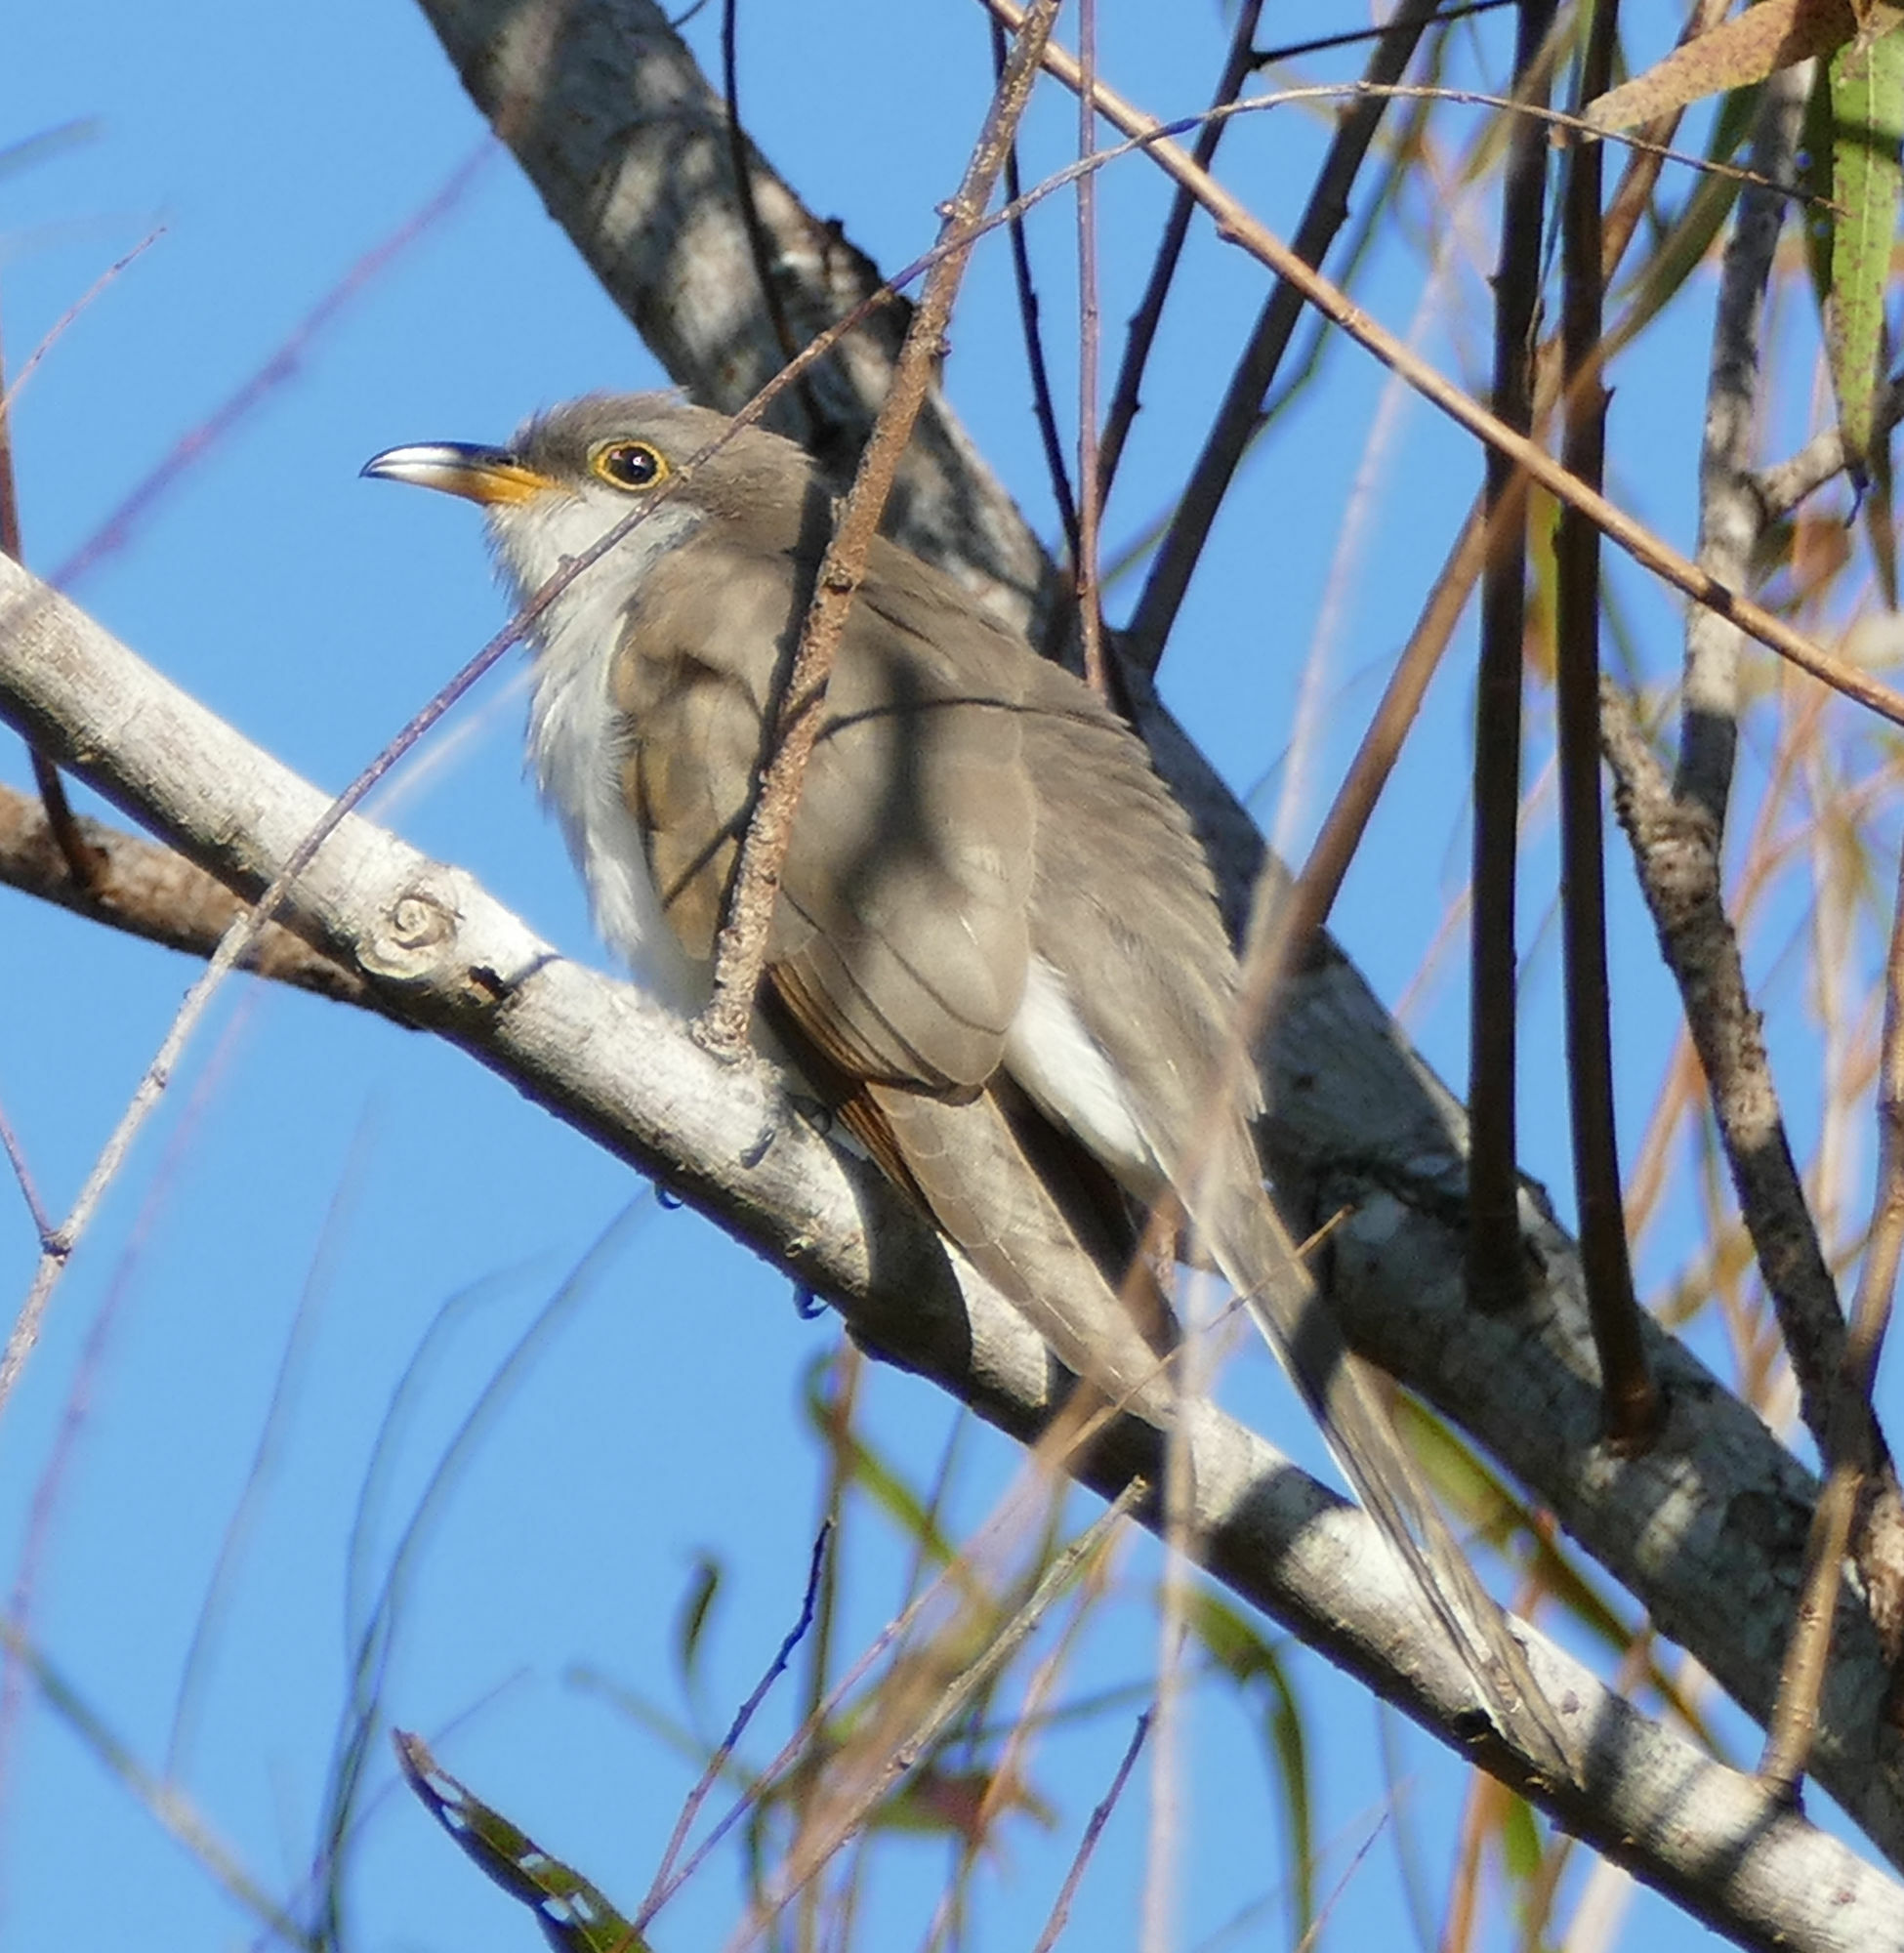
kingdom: Animalia
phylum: Chordata
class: Aves
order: Cuculiformes
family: Cuculidae
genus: Coccyzus
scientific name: Coccyzus americanus
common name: Yellow-billed cuckoo
